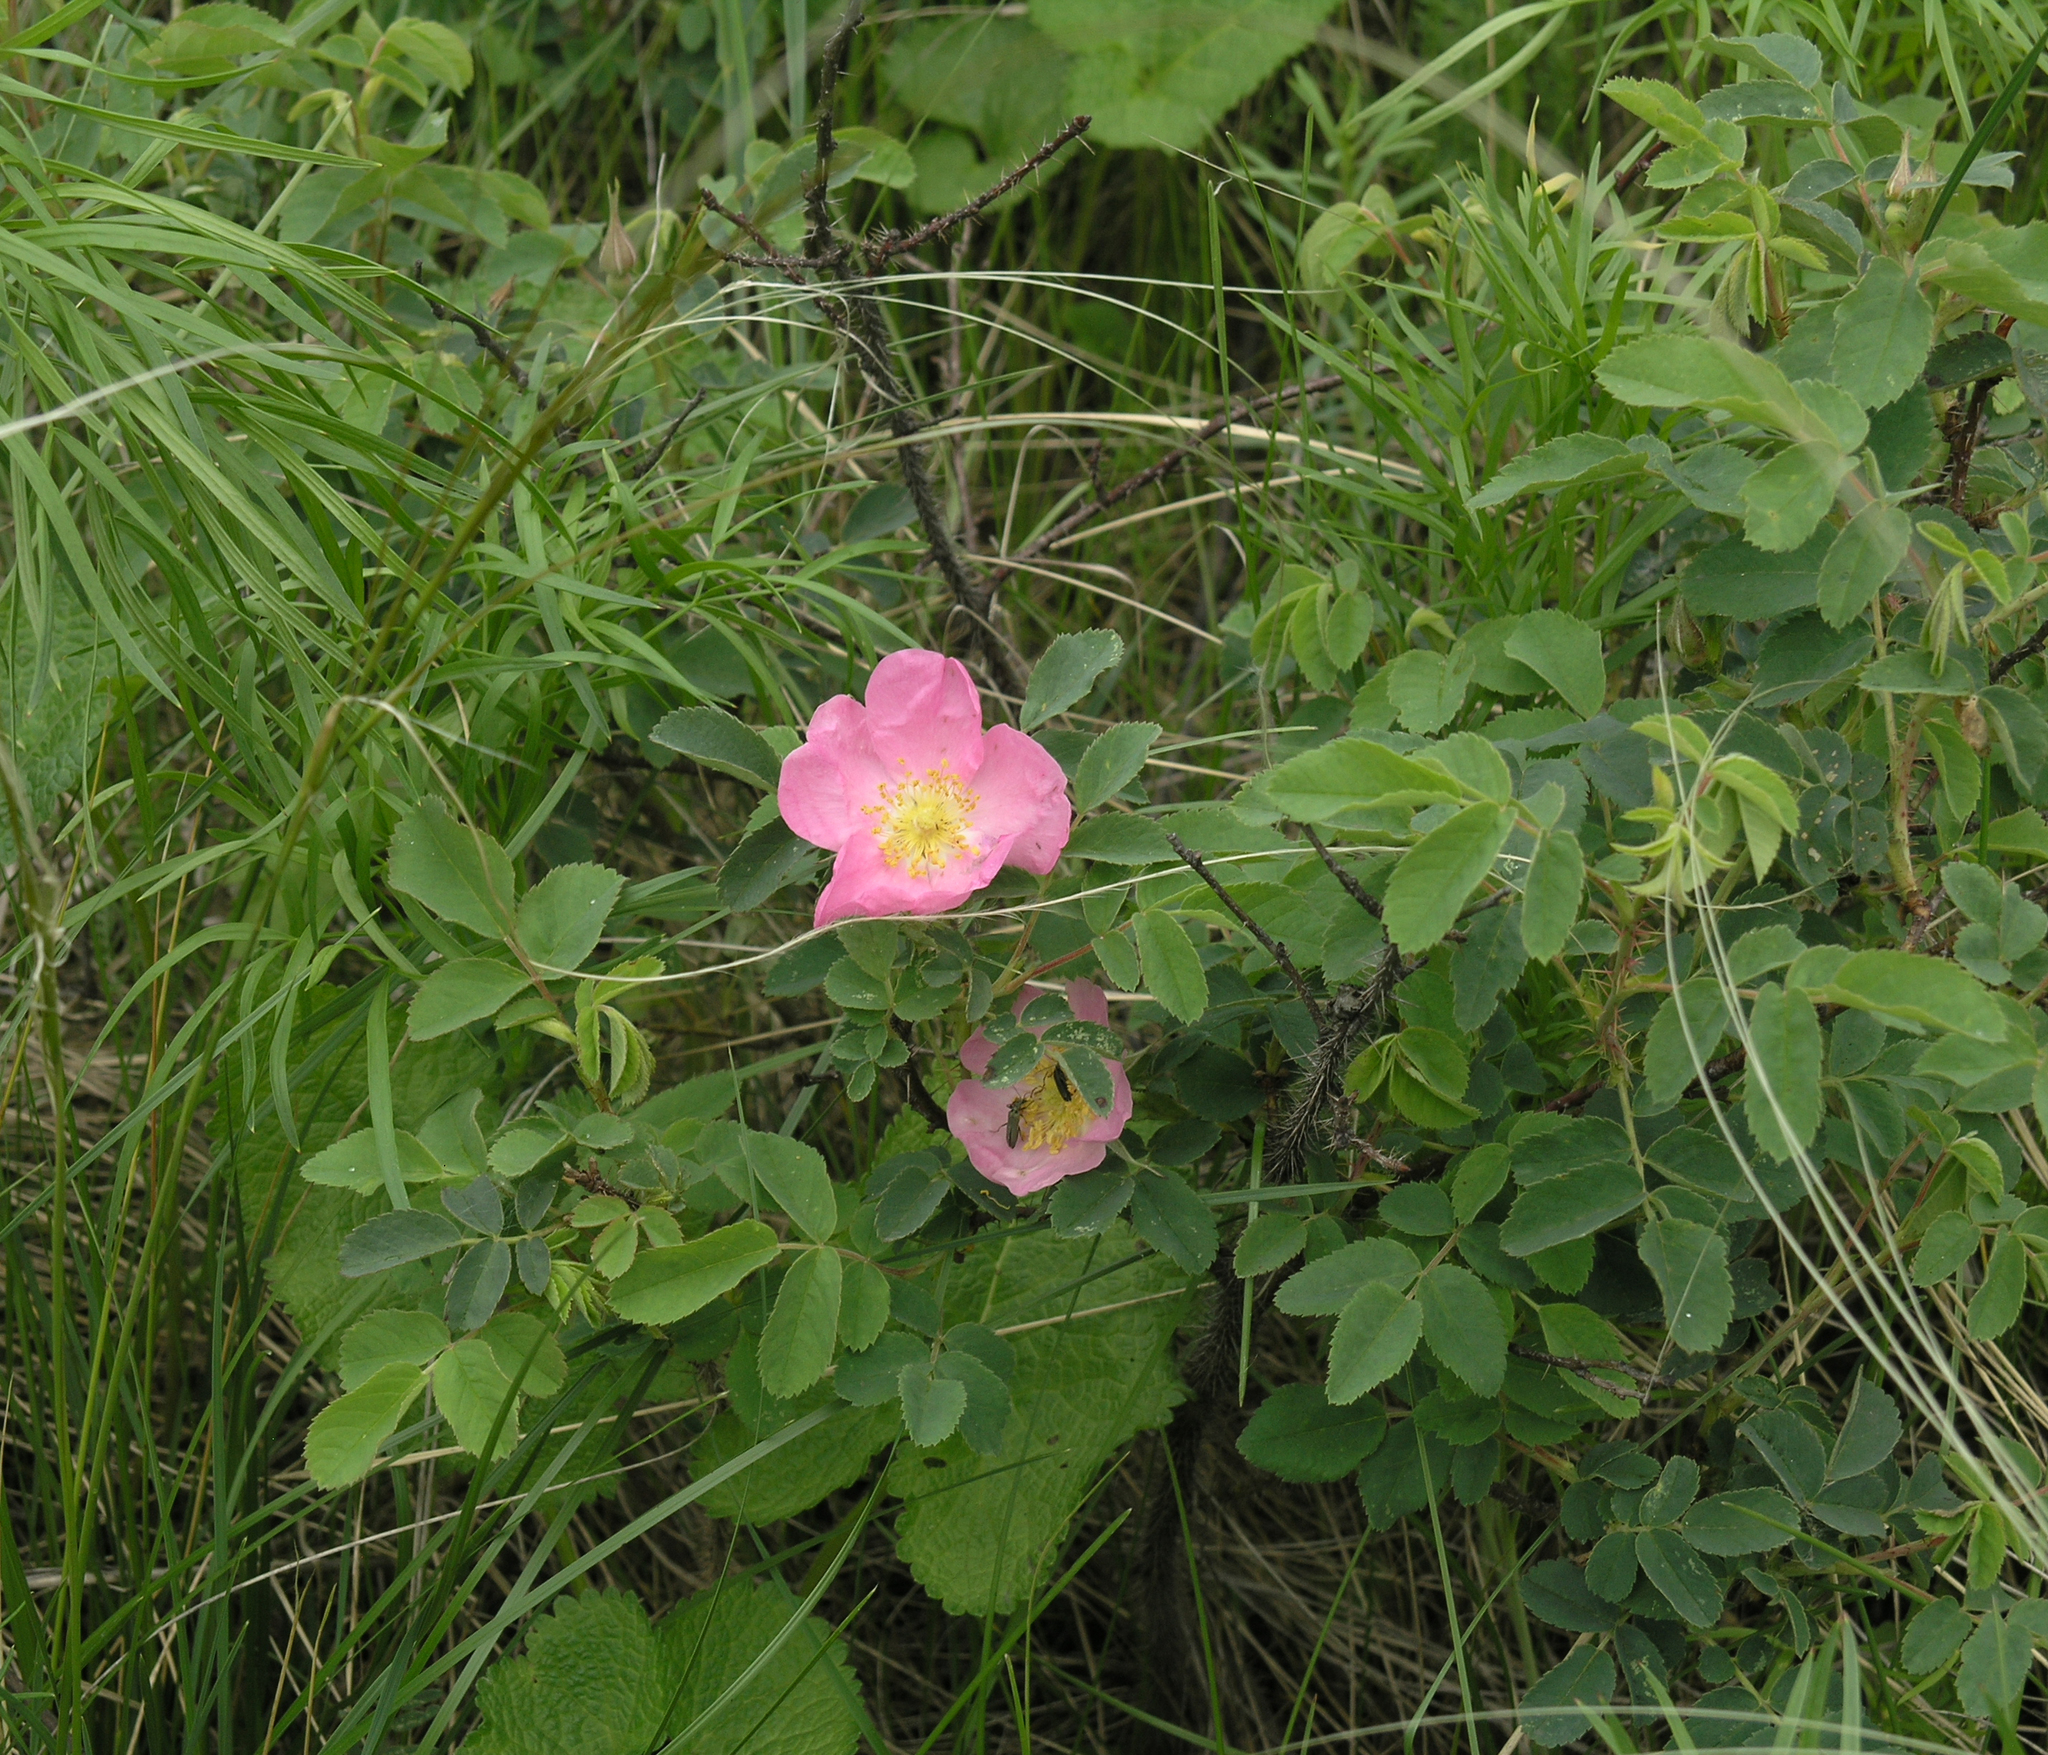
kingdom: Plantae
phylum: Tracheophyta
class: Magnoliopsida
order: Rosales
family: Rosaceae
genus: Rosa
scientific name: Rosa acicularis
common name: Prickly rose
